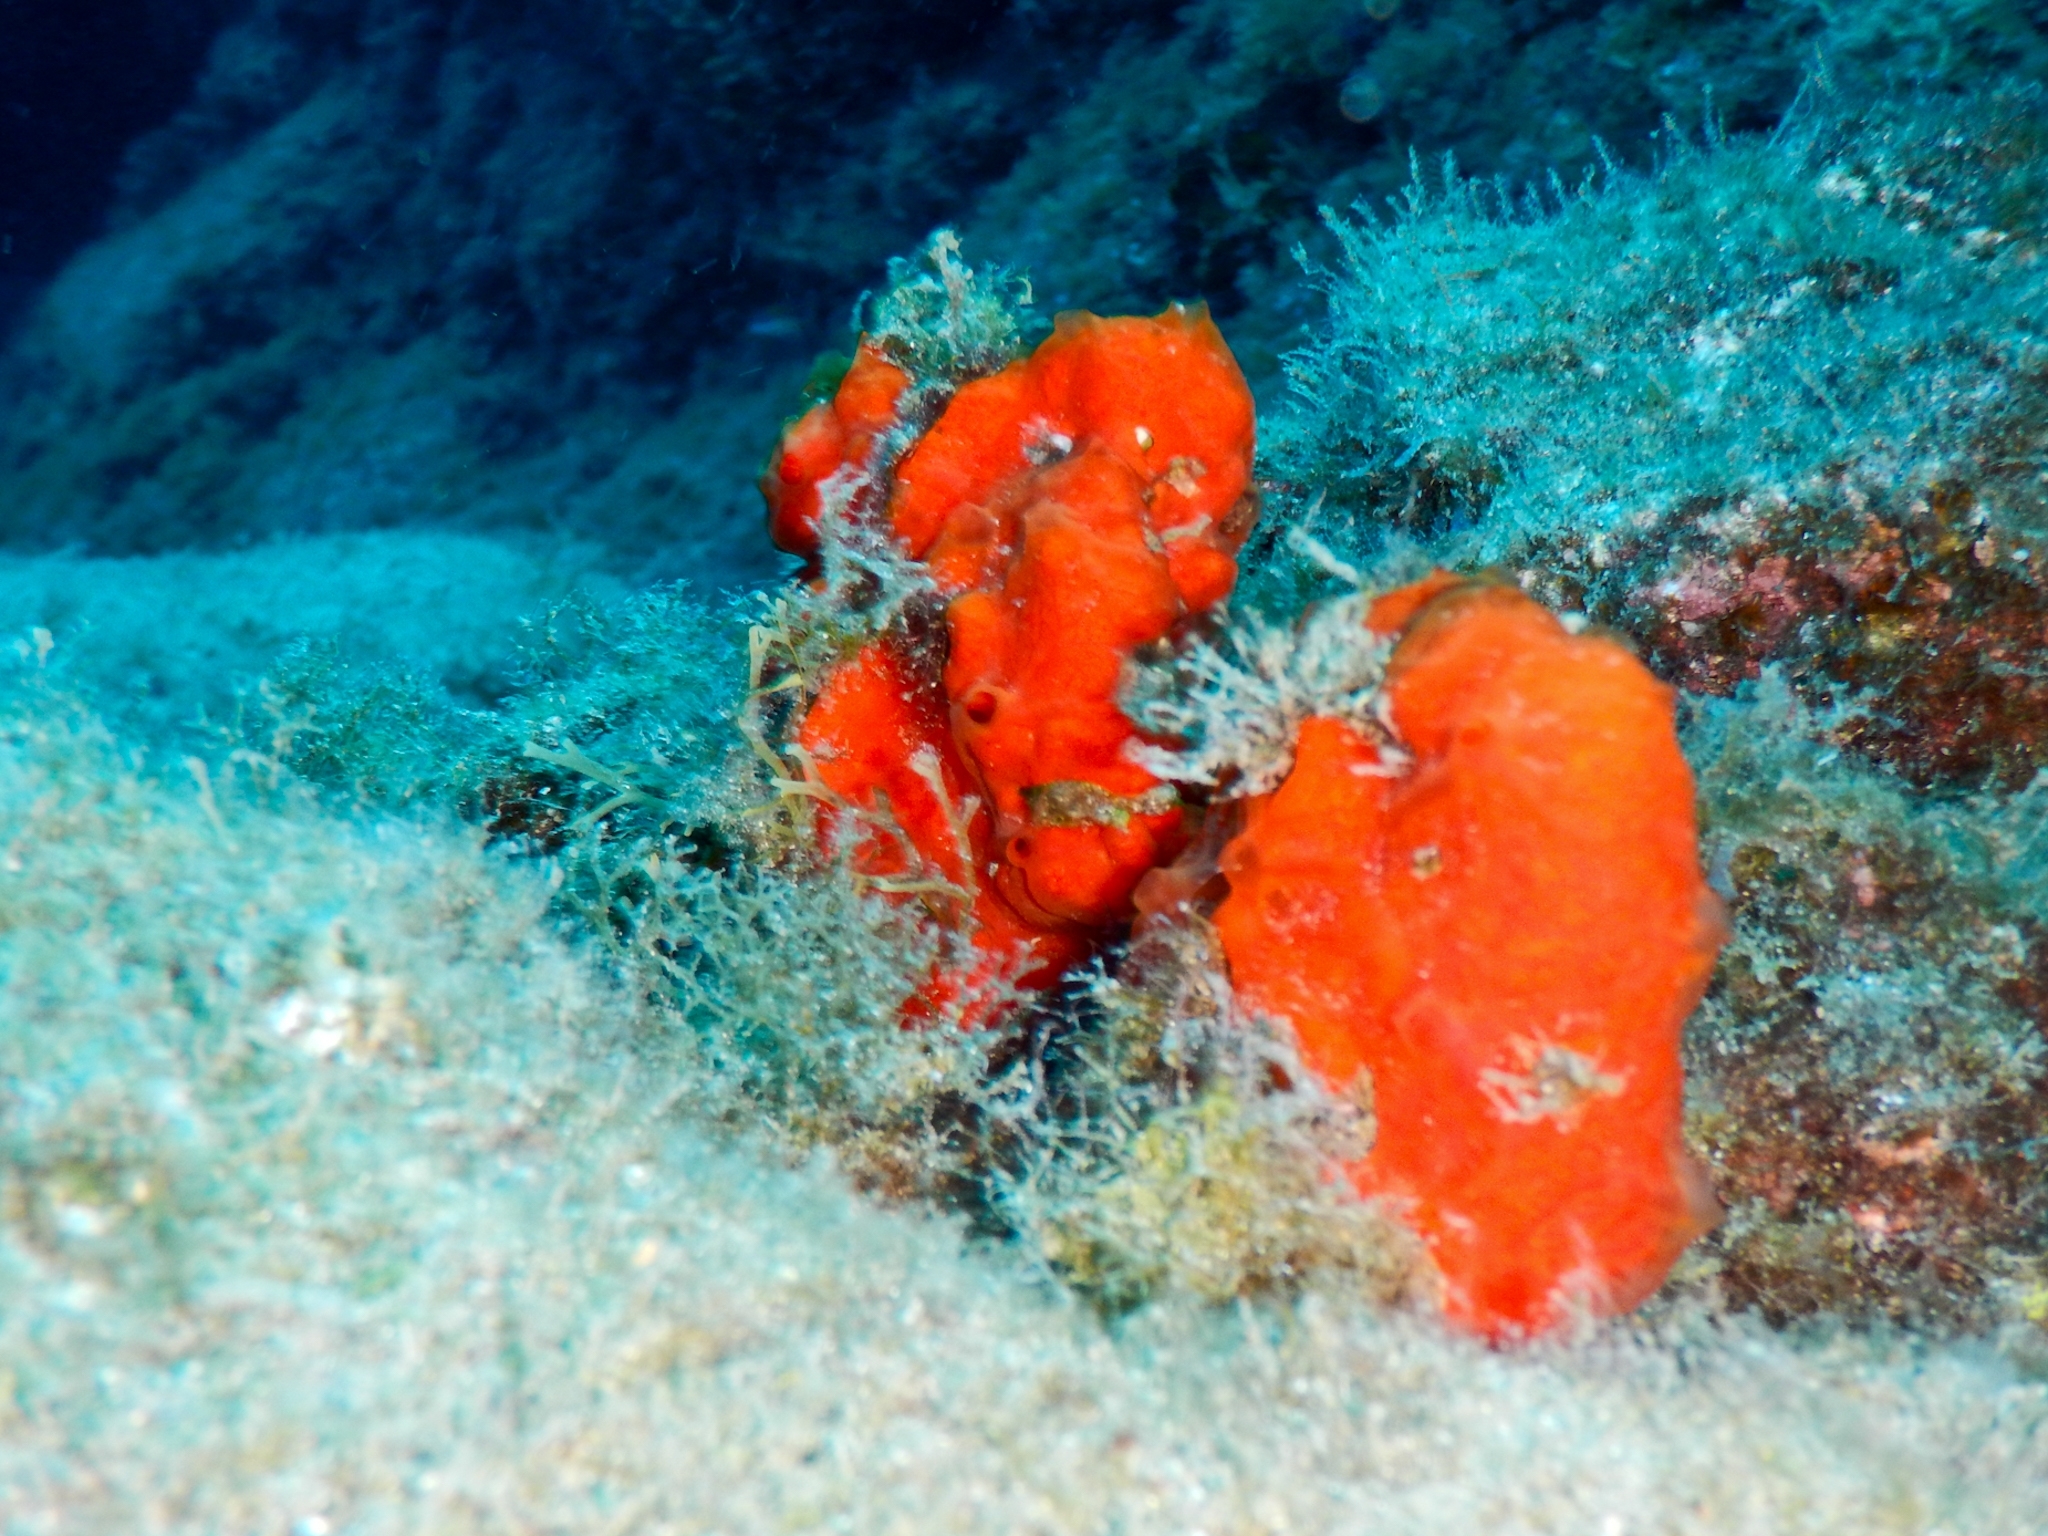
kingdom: Animalia
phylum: Porifera
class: Demospongiae
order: Poecilosclerida
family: Crambeidae
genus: Crambe
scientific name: Crambe crambe
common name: Orange-red encrusting sponge
